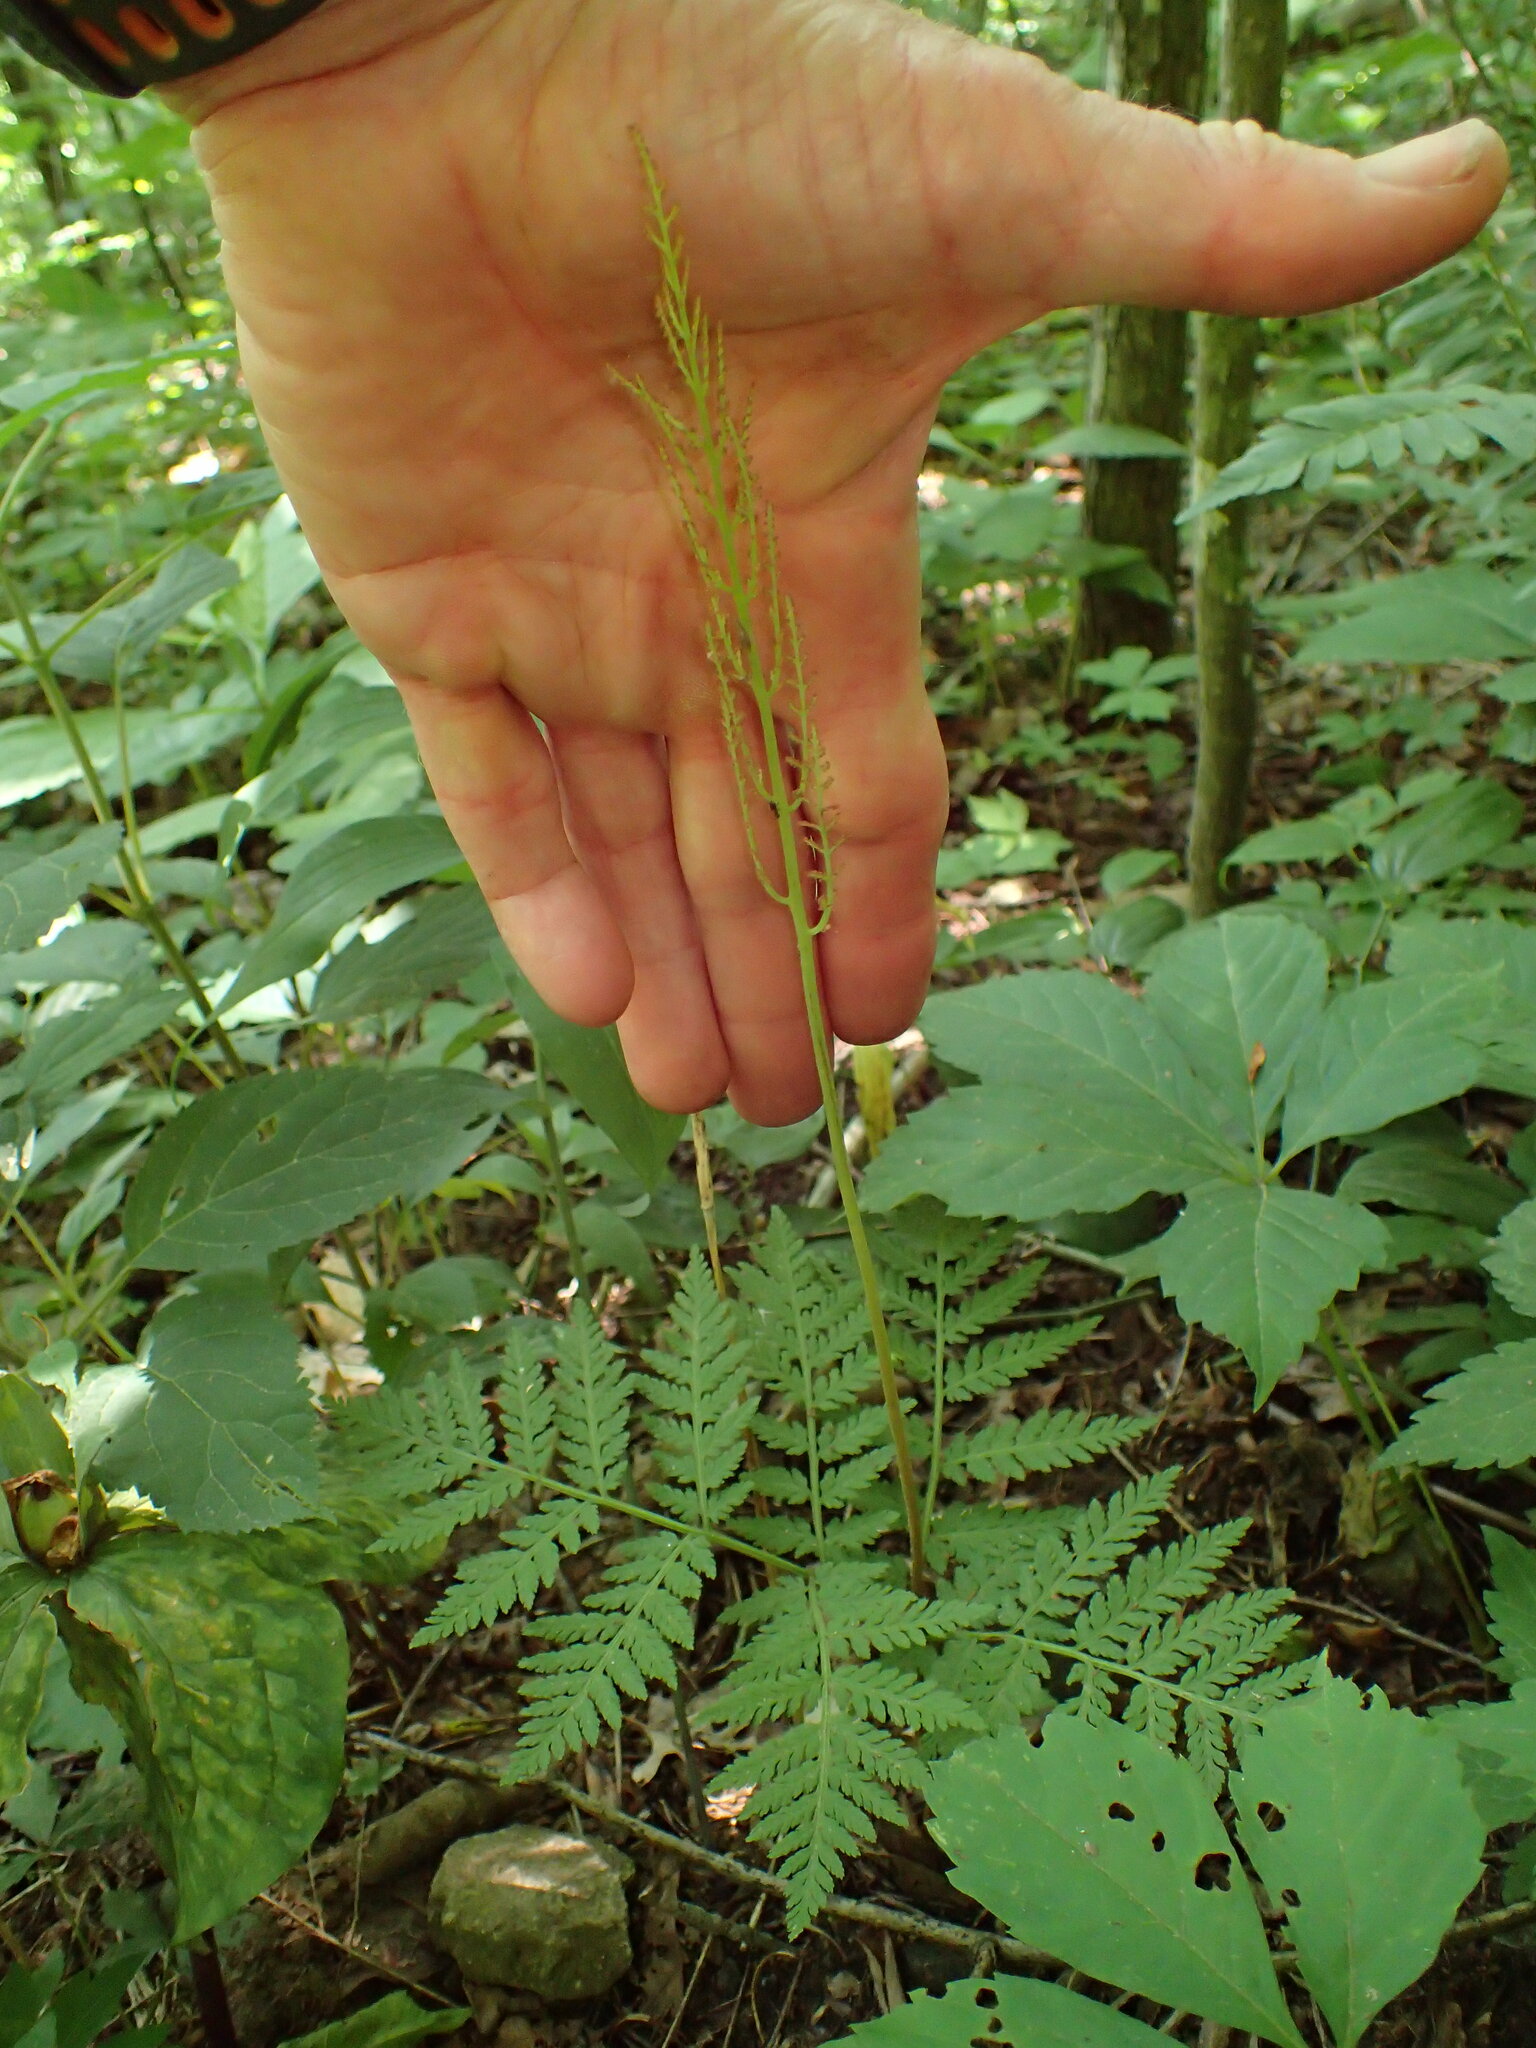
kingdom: Plantae
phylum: Tracheophyta
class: Polypodiopsida
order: Ophioglossales
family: Ophioglossaceae
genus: Botrypus
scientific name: Botrypus virginianus
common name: Common grapefern
